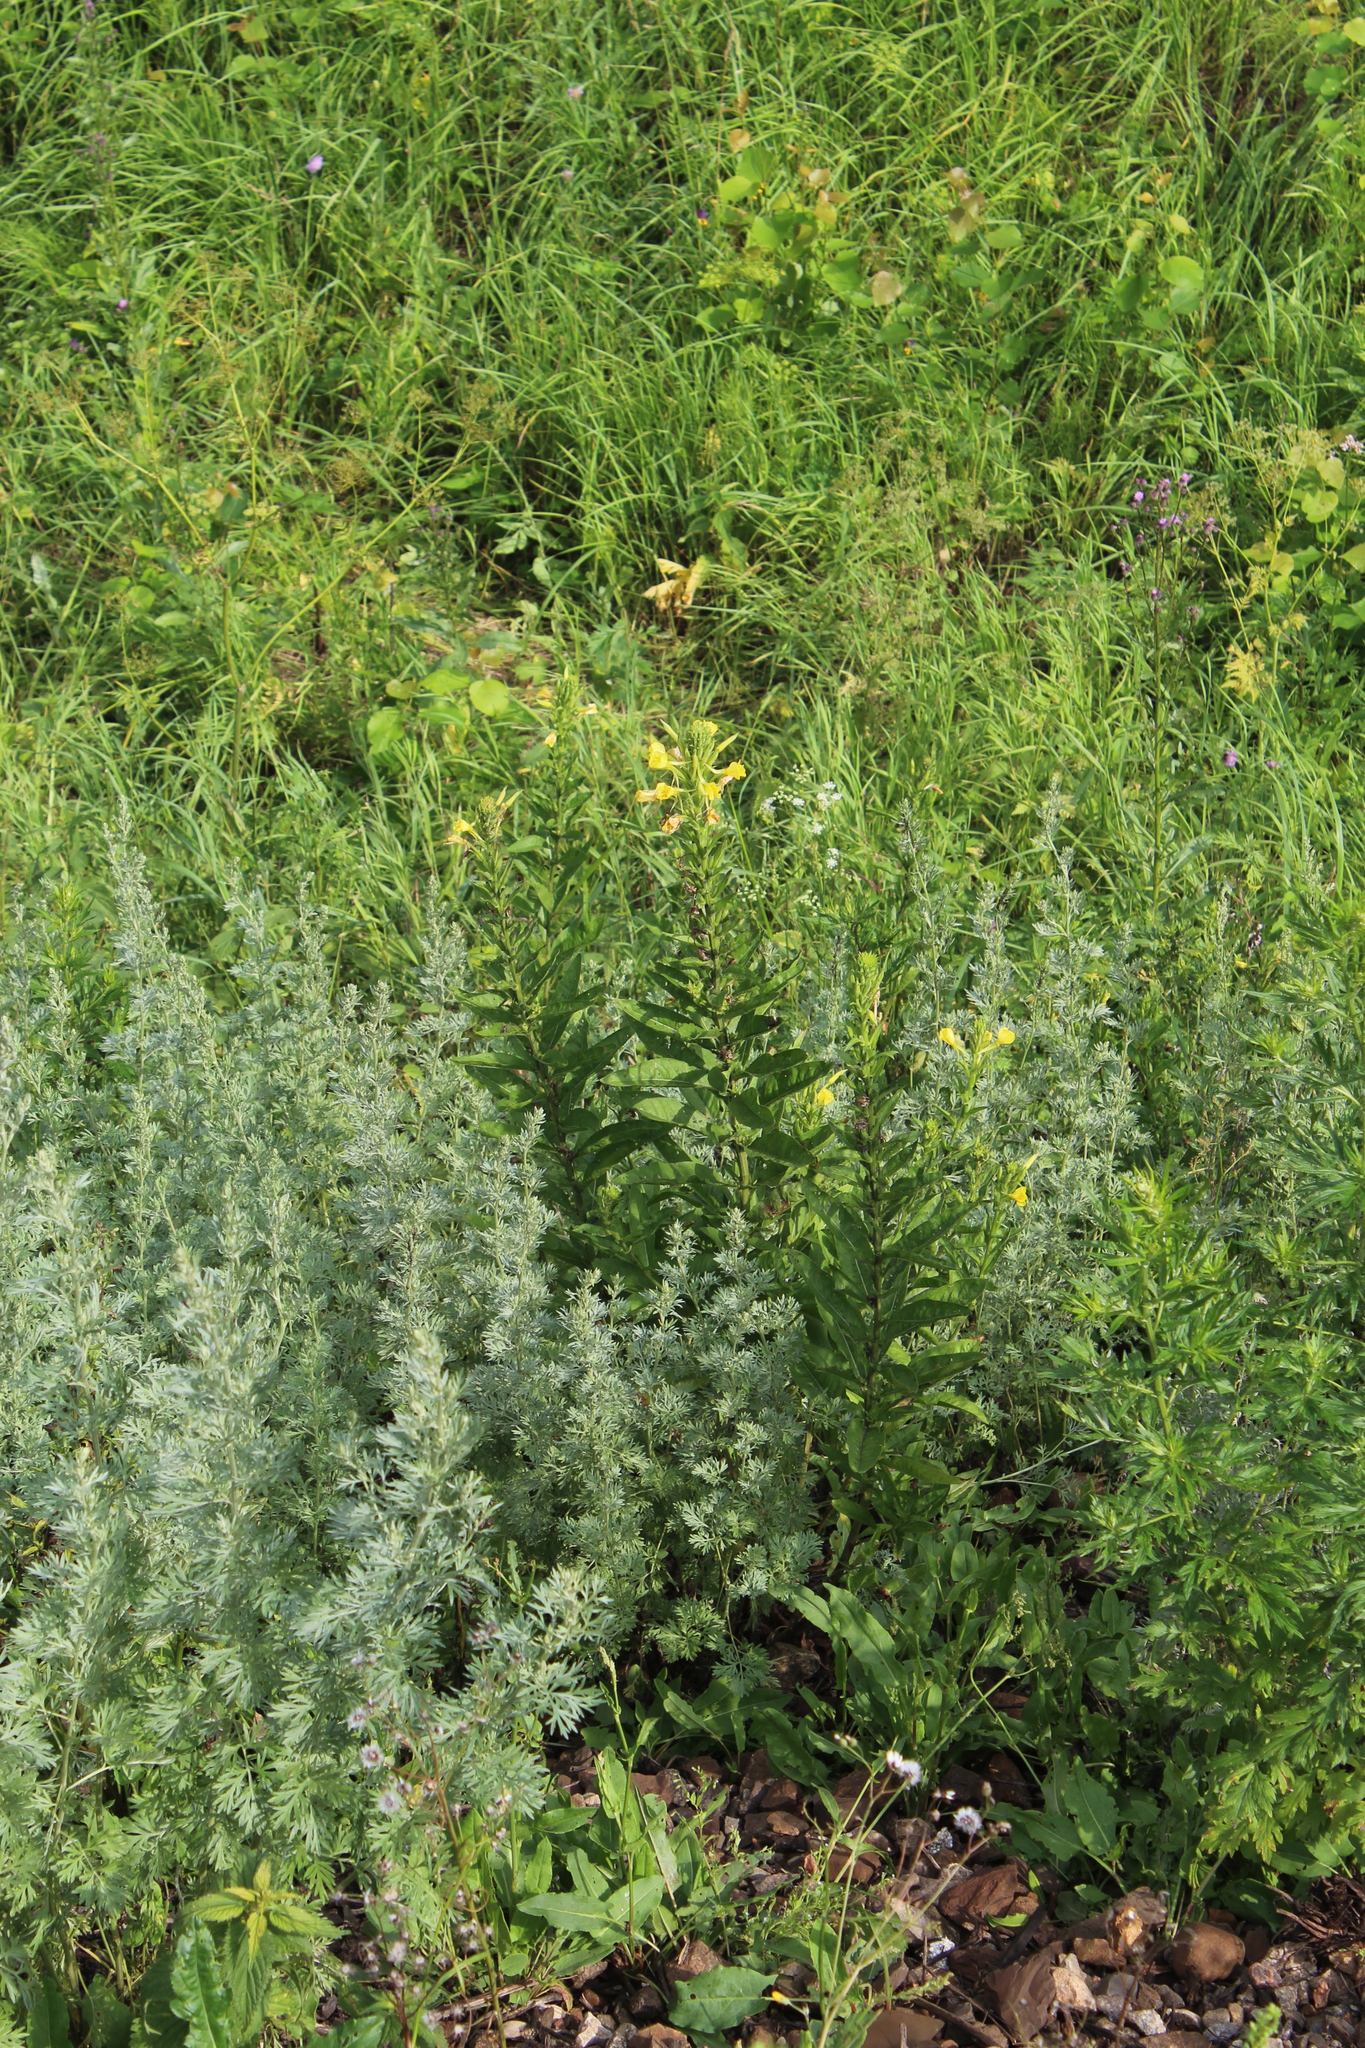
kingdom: Plantae
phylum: Tracheophyta
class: Magnoliopsida
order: Myrtales
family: Onagraceae
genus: Oenothera
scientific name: Oenothera biennis
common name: Common evening-primrose
